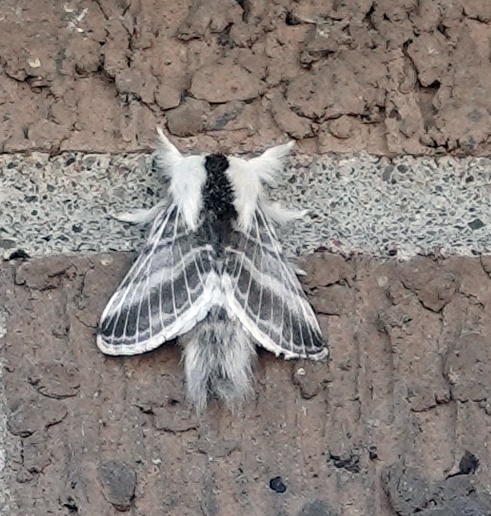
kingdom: Animalia
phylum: Arthropoda
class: Insecta
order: Lepidoptera
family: Lasiocampidae
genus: Tolype
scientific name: Tolype velleda
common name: Large tolype moth
